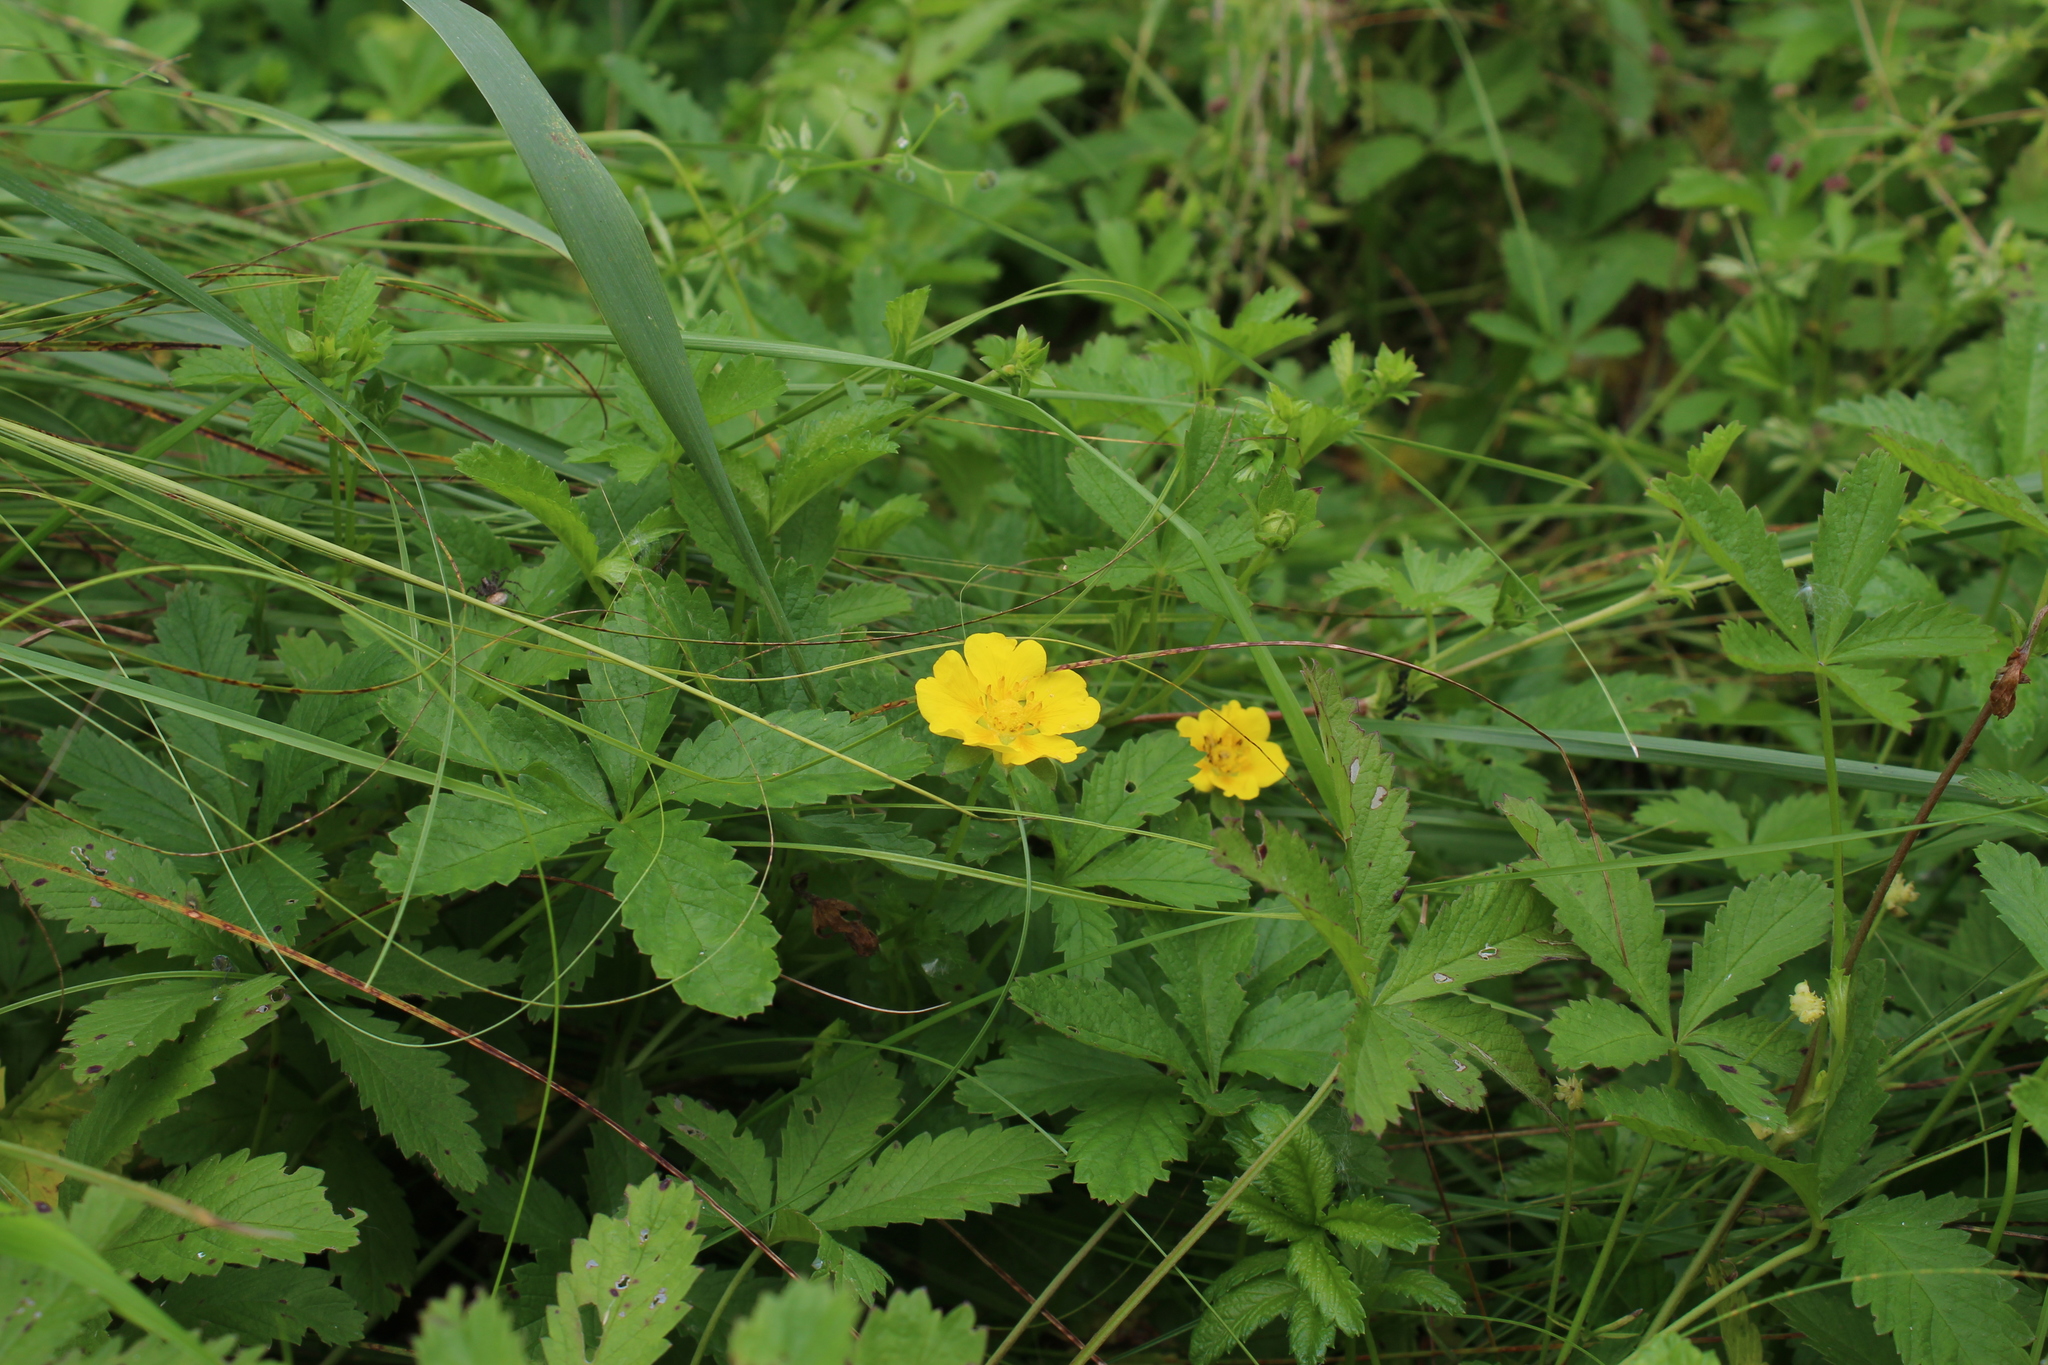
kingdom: Plantae
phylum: Tracheophyta
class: Magnoliopsida
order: Rosales
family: Rosaceae
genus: Potentilla
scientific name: Potentilla reptans
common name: Creeping cinquefoil
